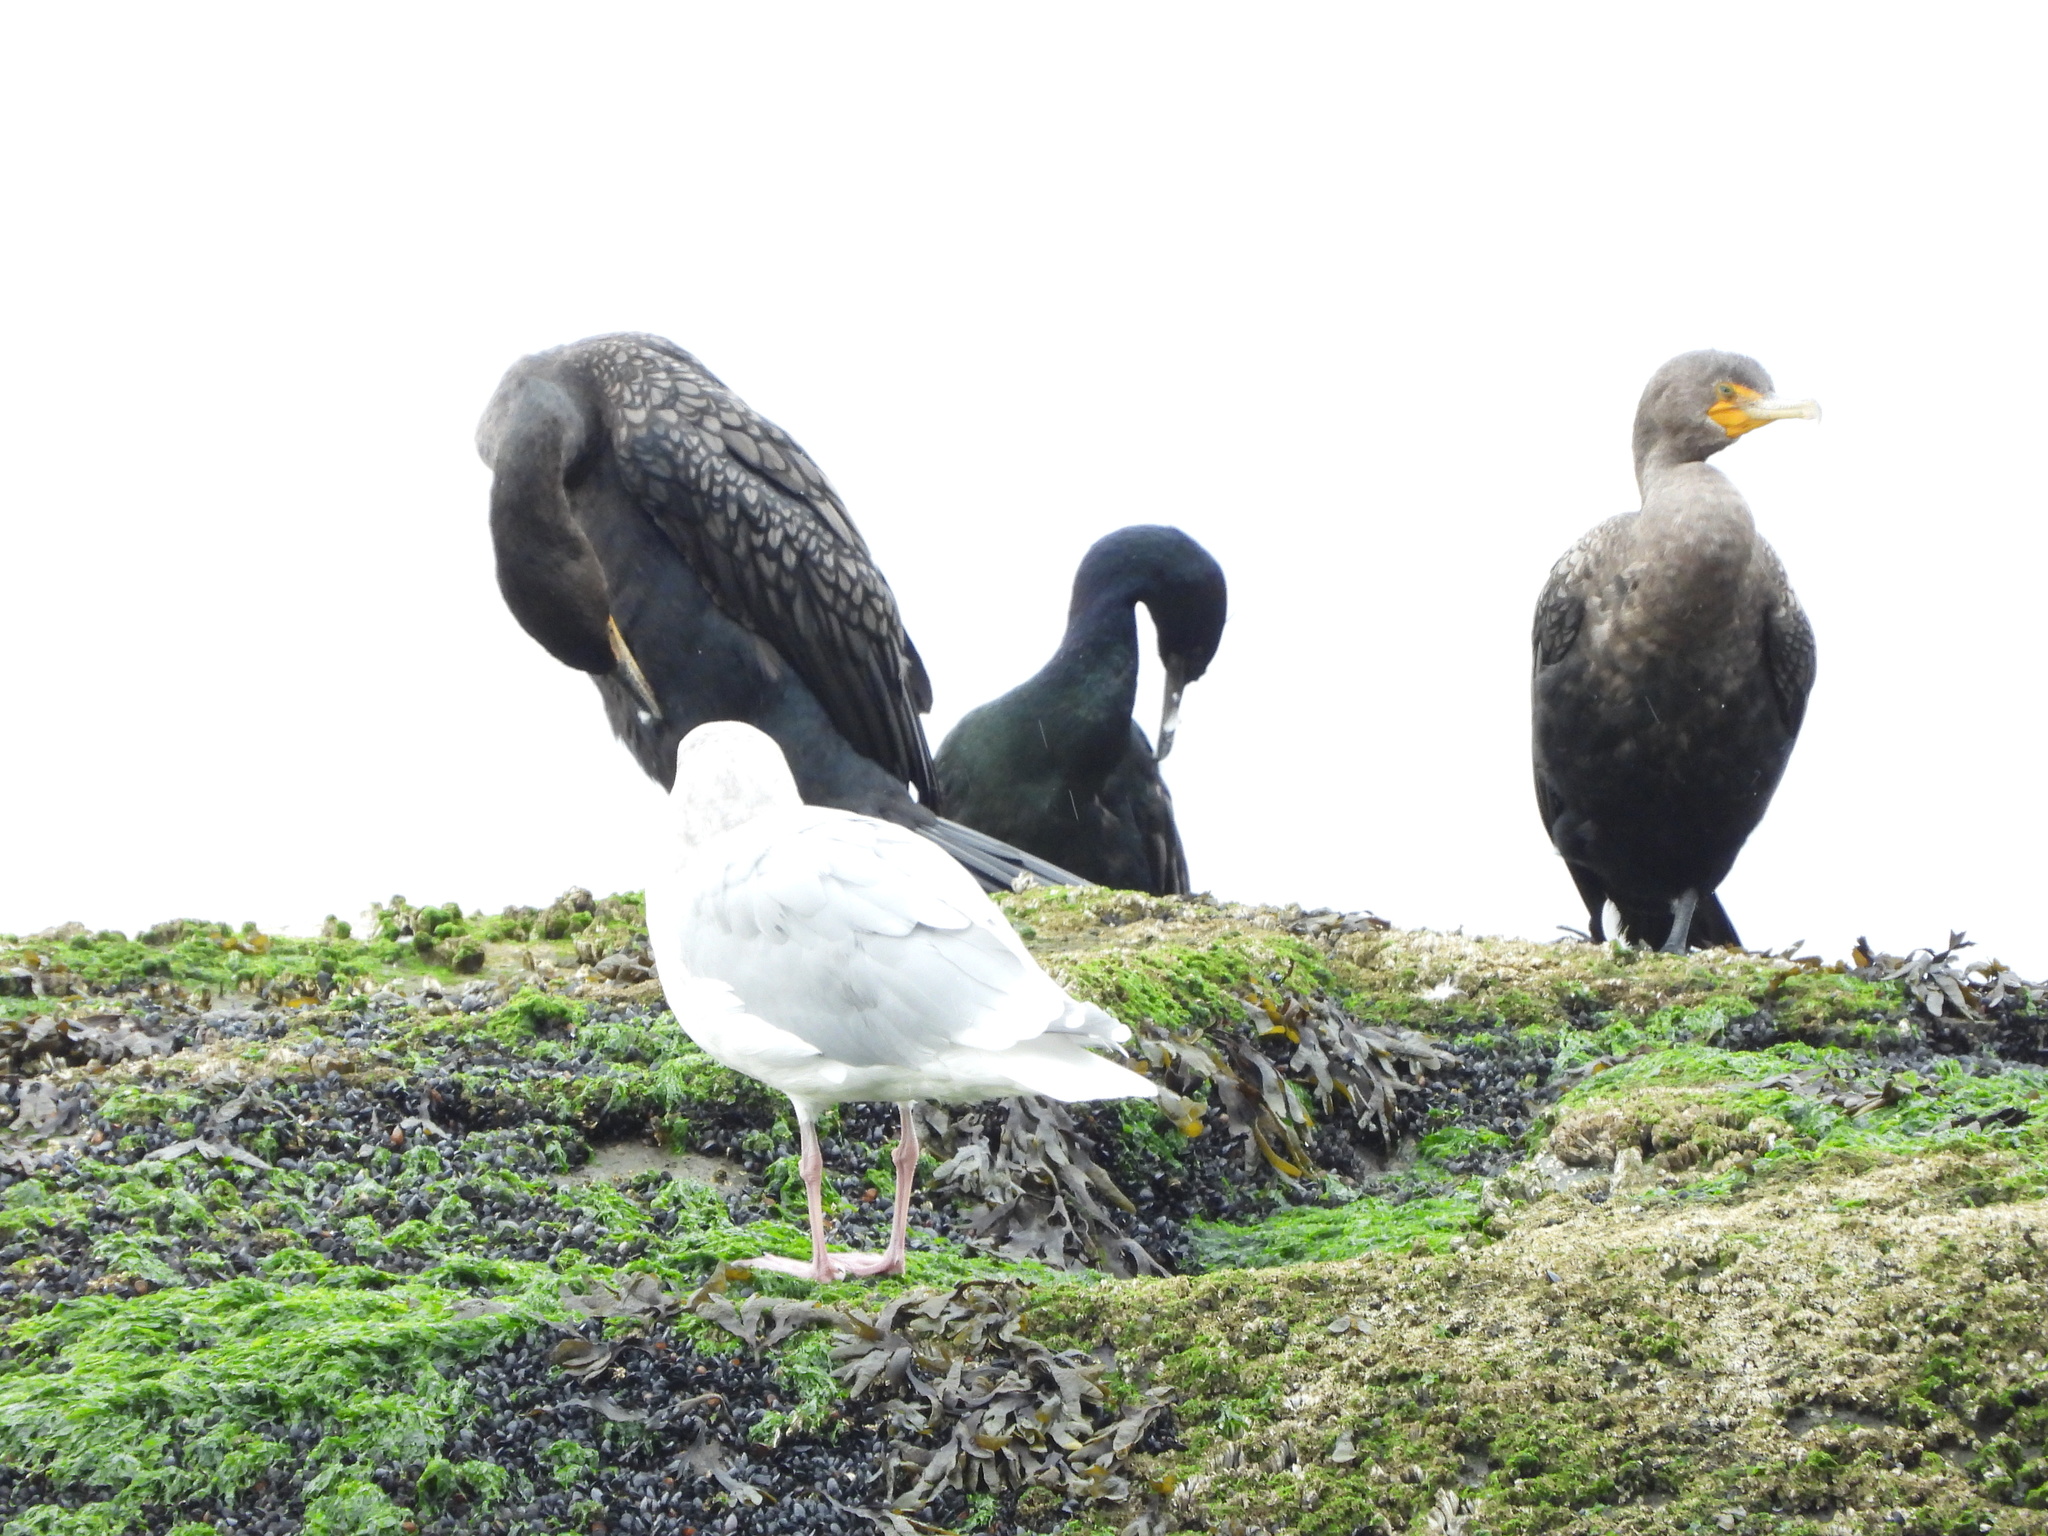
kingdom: Animalia
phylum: Chordata
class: Aves
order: Suliformes
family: Phalacrocoracidae
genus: Phalacrocorax
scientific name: Phalacrocorax pelagicus
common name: Pelagic cormorant
